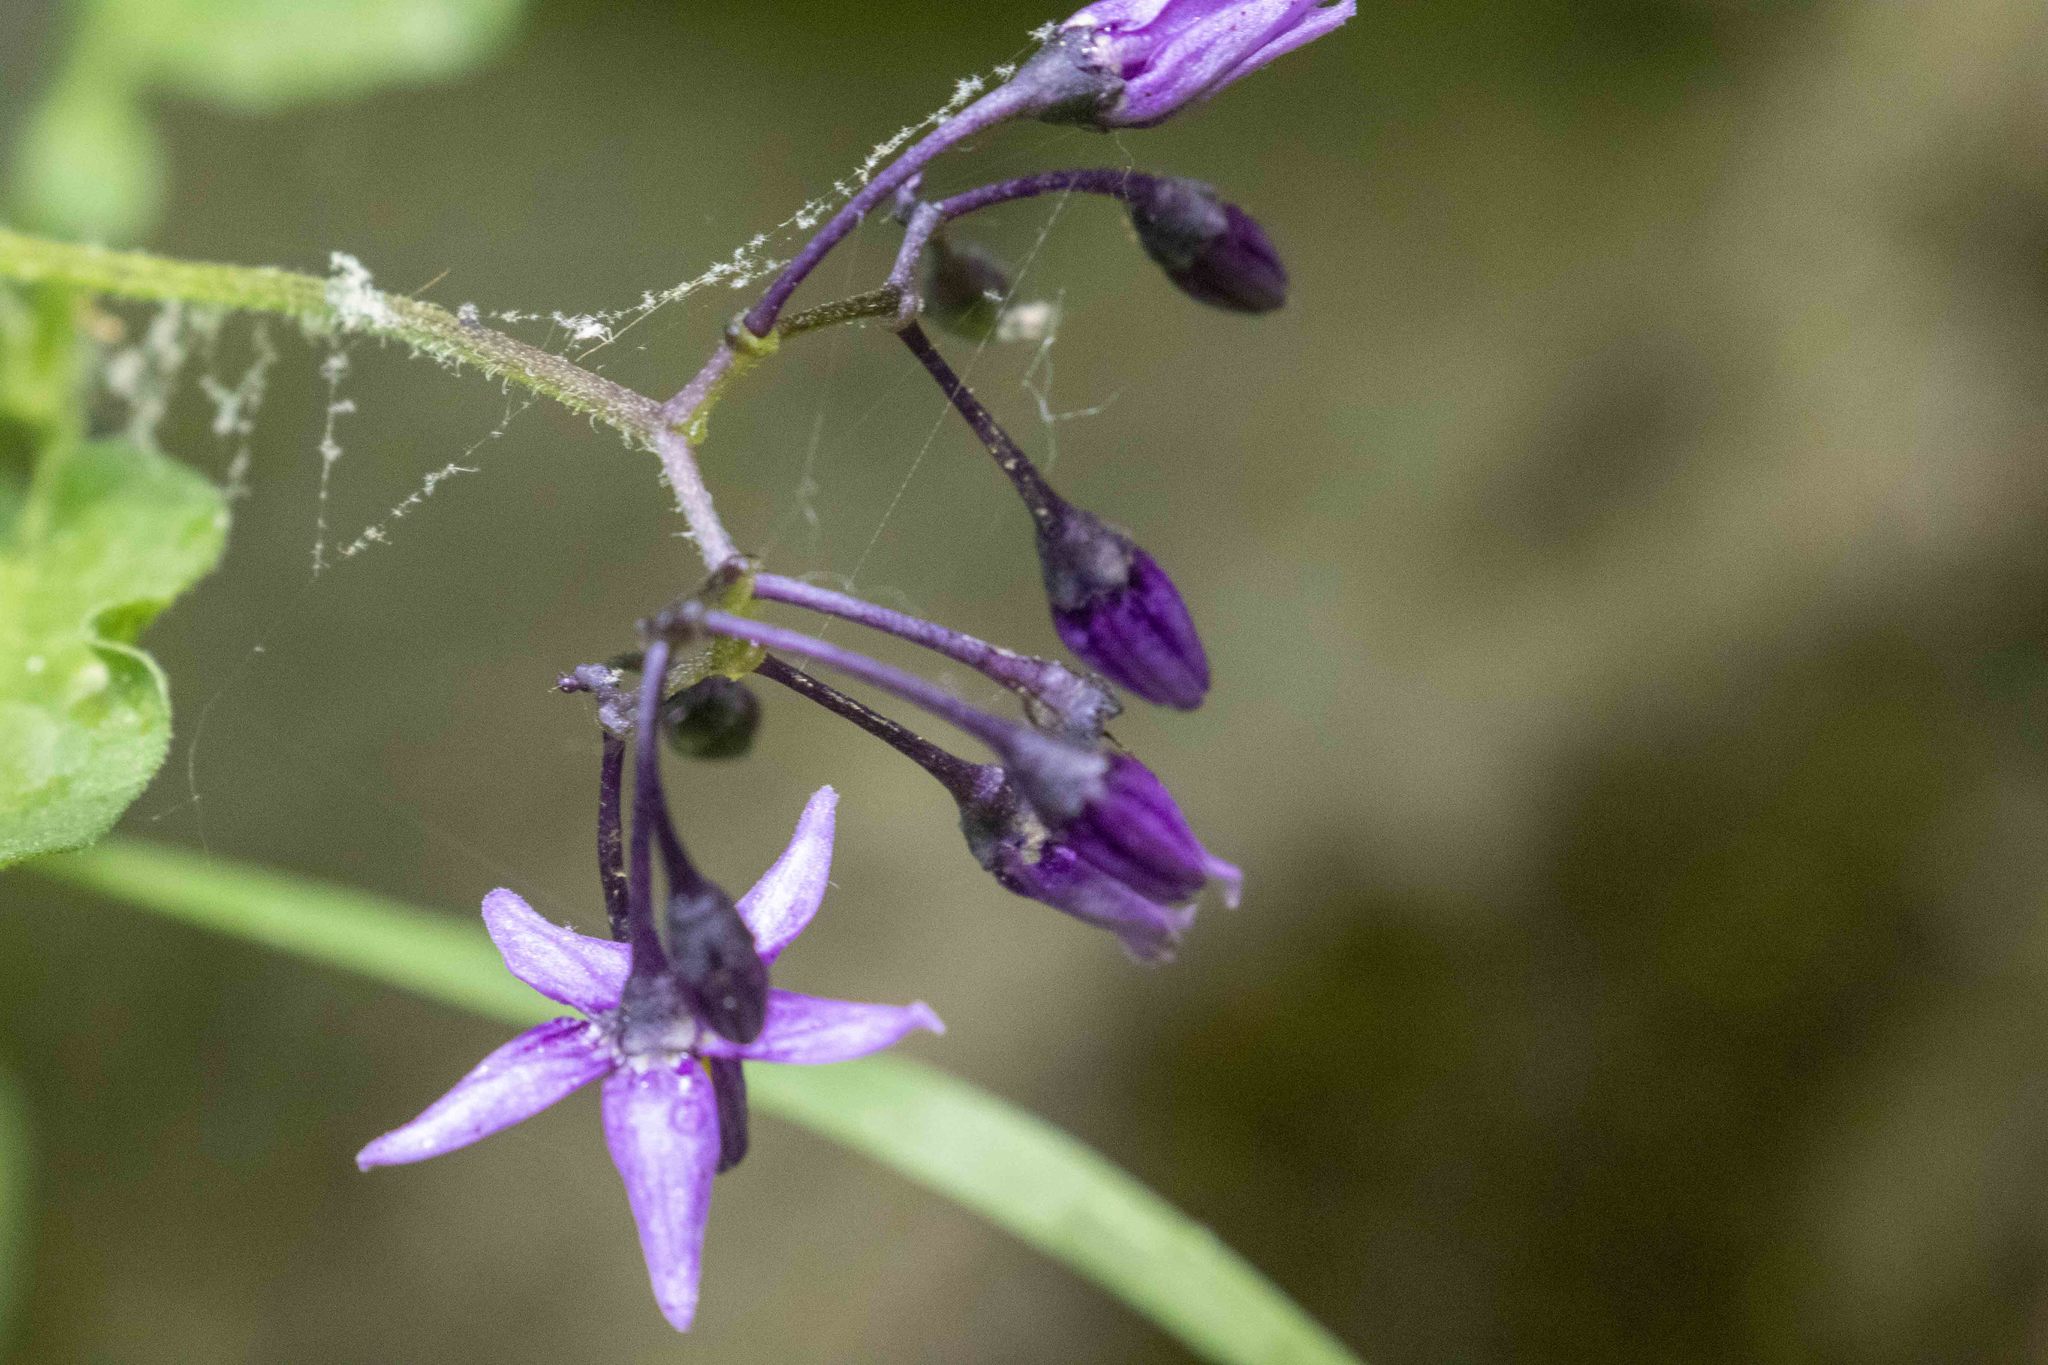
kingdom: Plantae
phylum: Tracheophyta
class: Magnoliopsida
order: Solanales
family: Solanaceae
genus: Solanum
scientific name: Solanum dulcamara
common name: Climbing nightshade
